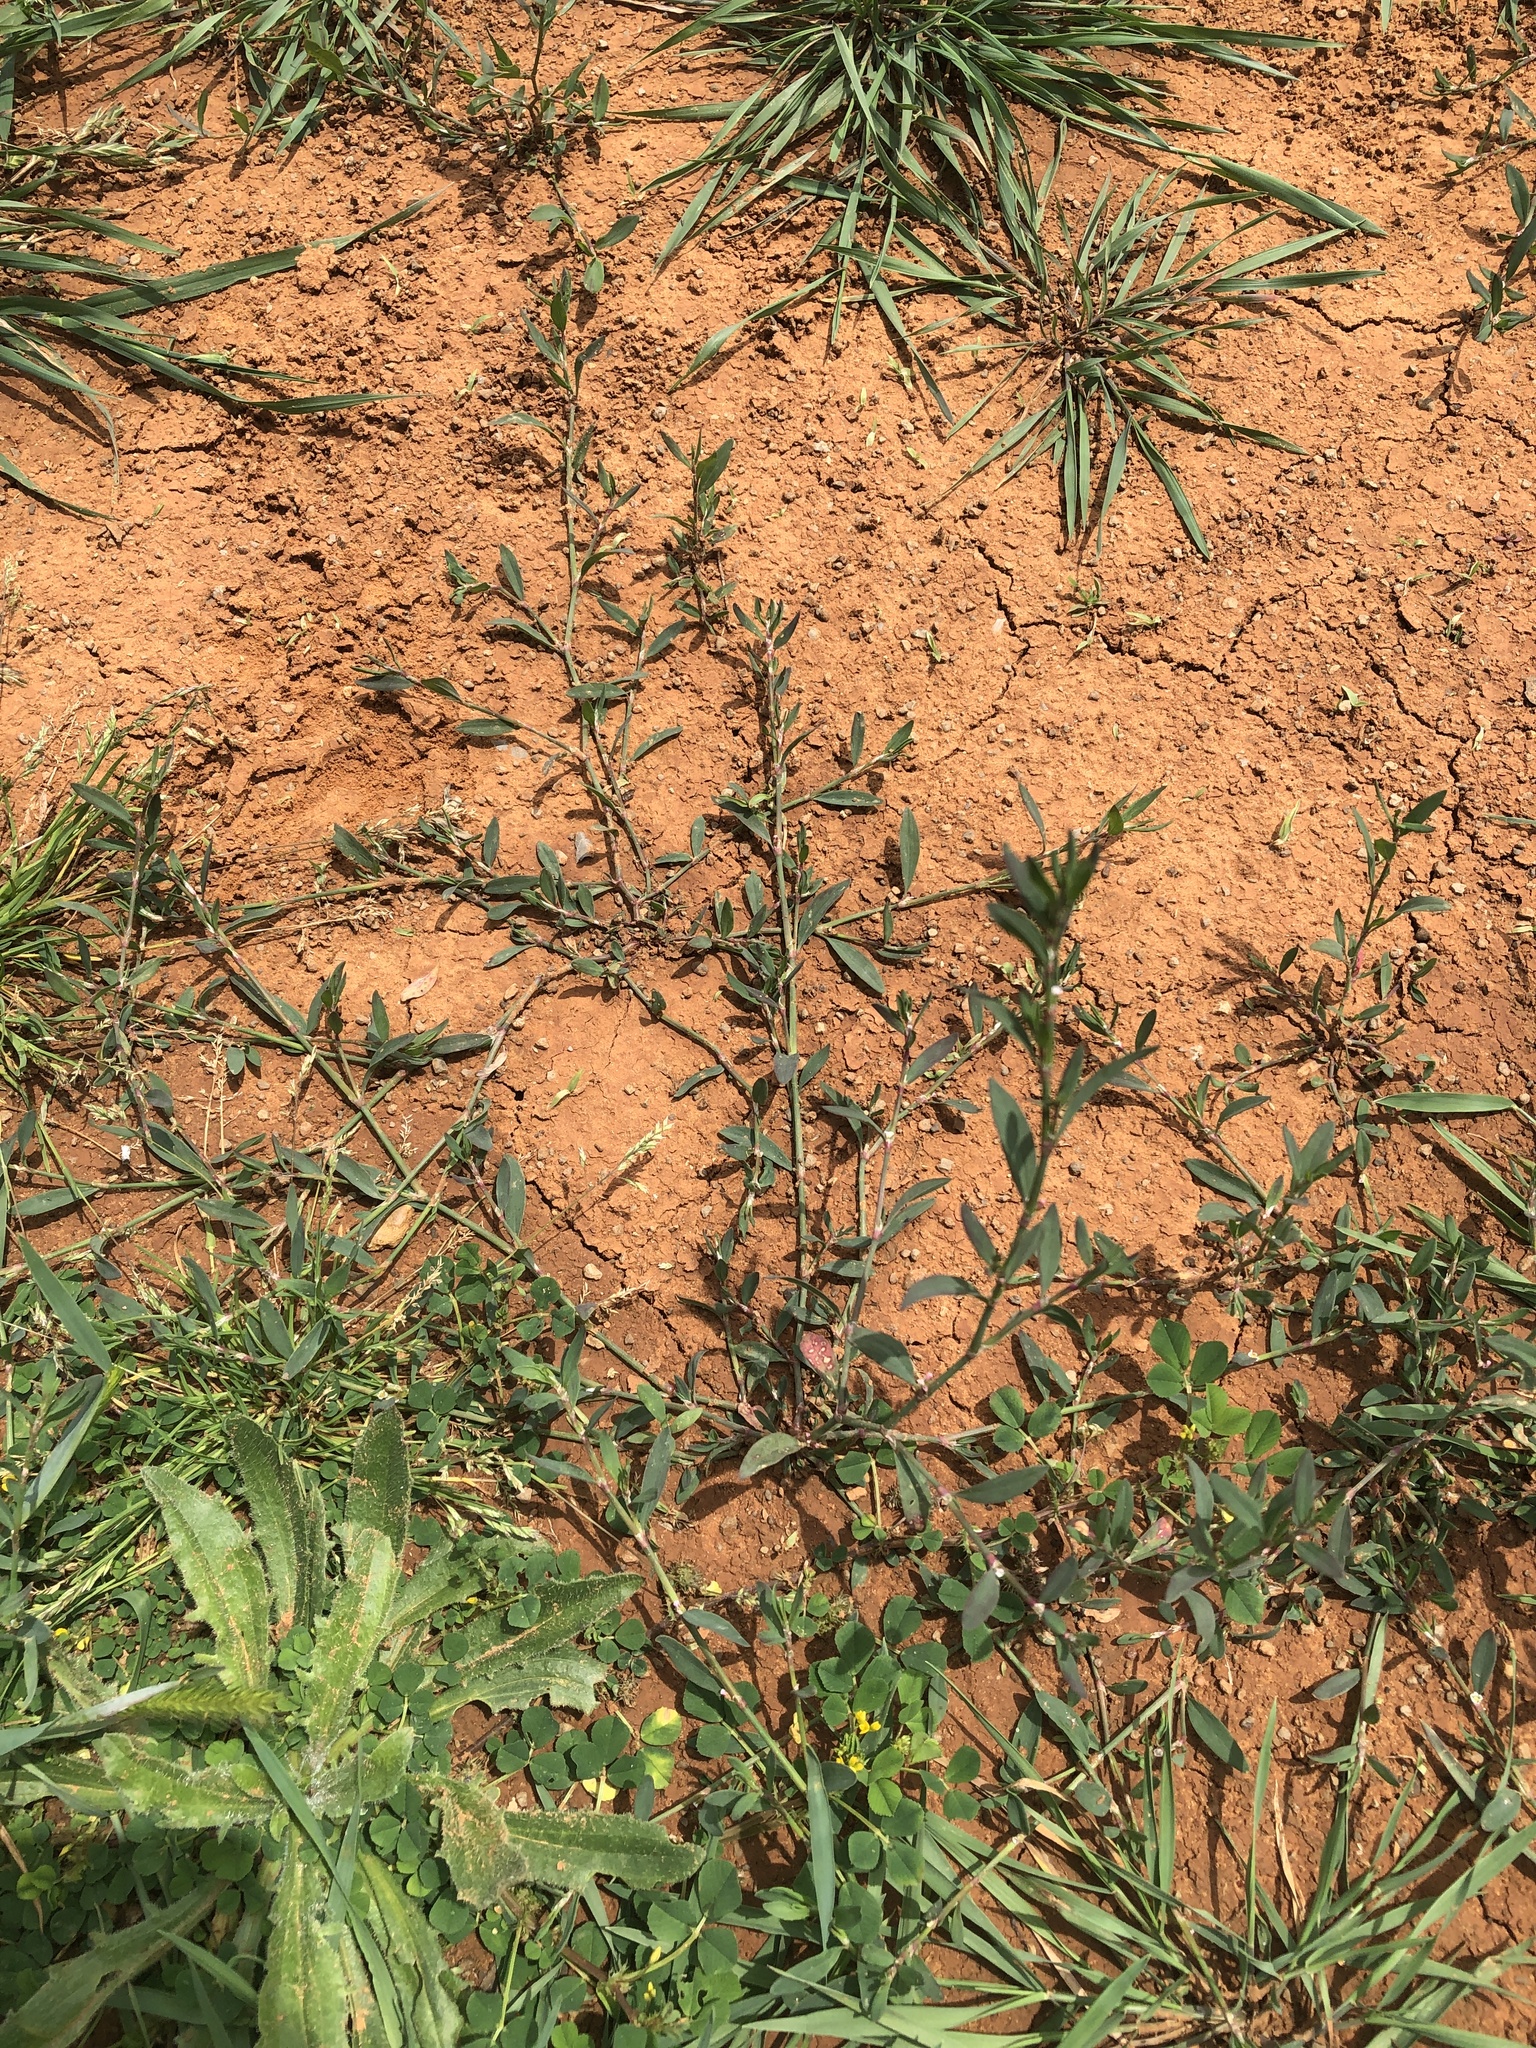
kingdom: Plantae
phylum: Tracheophyta
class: Magnoliopsida
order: Caryophyllales
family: Polygonaceae
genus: Polygonum
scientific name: Polygonum aviculare
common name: Prostrate knotweed
